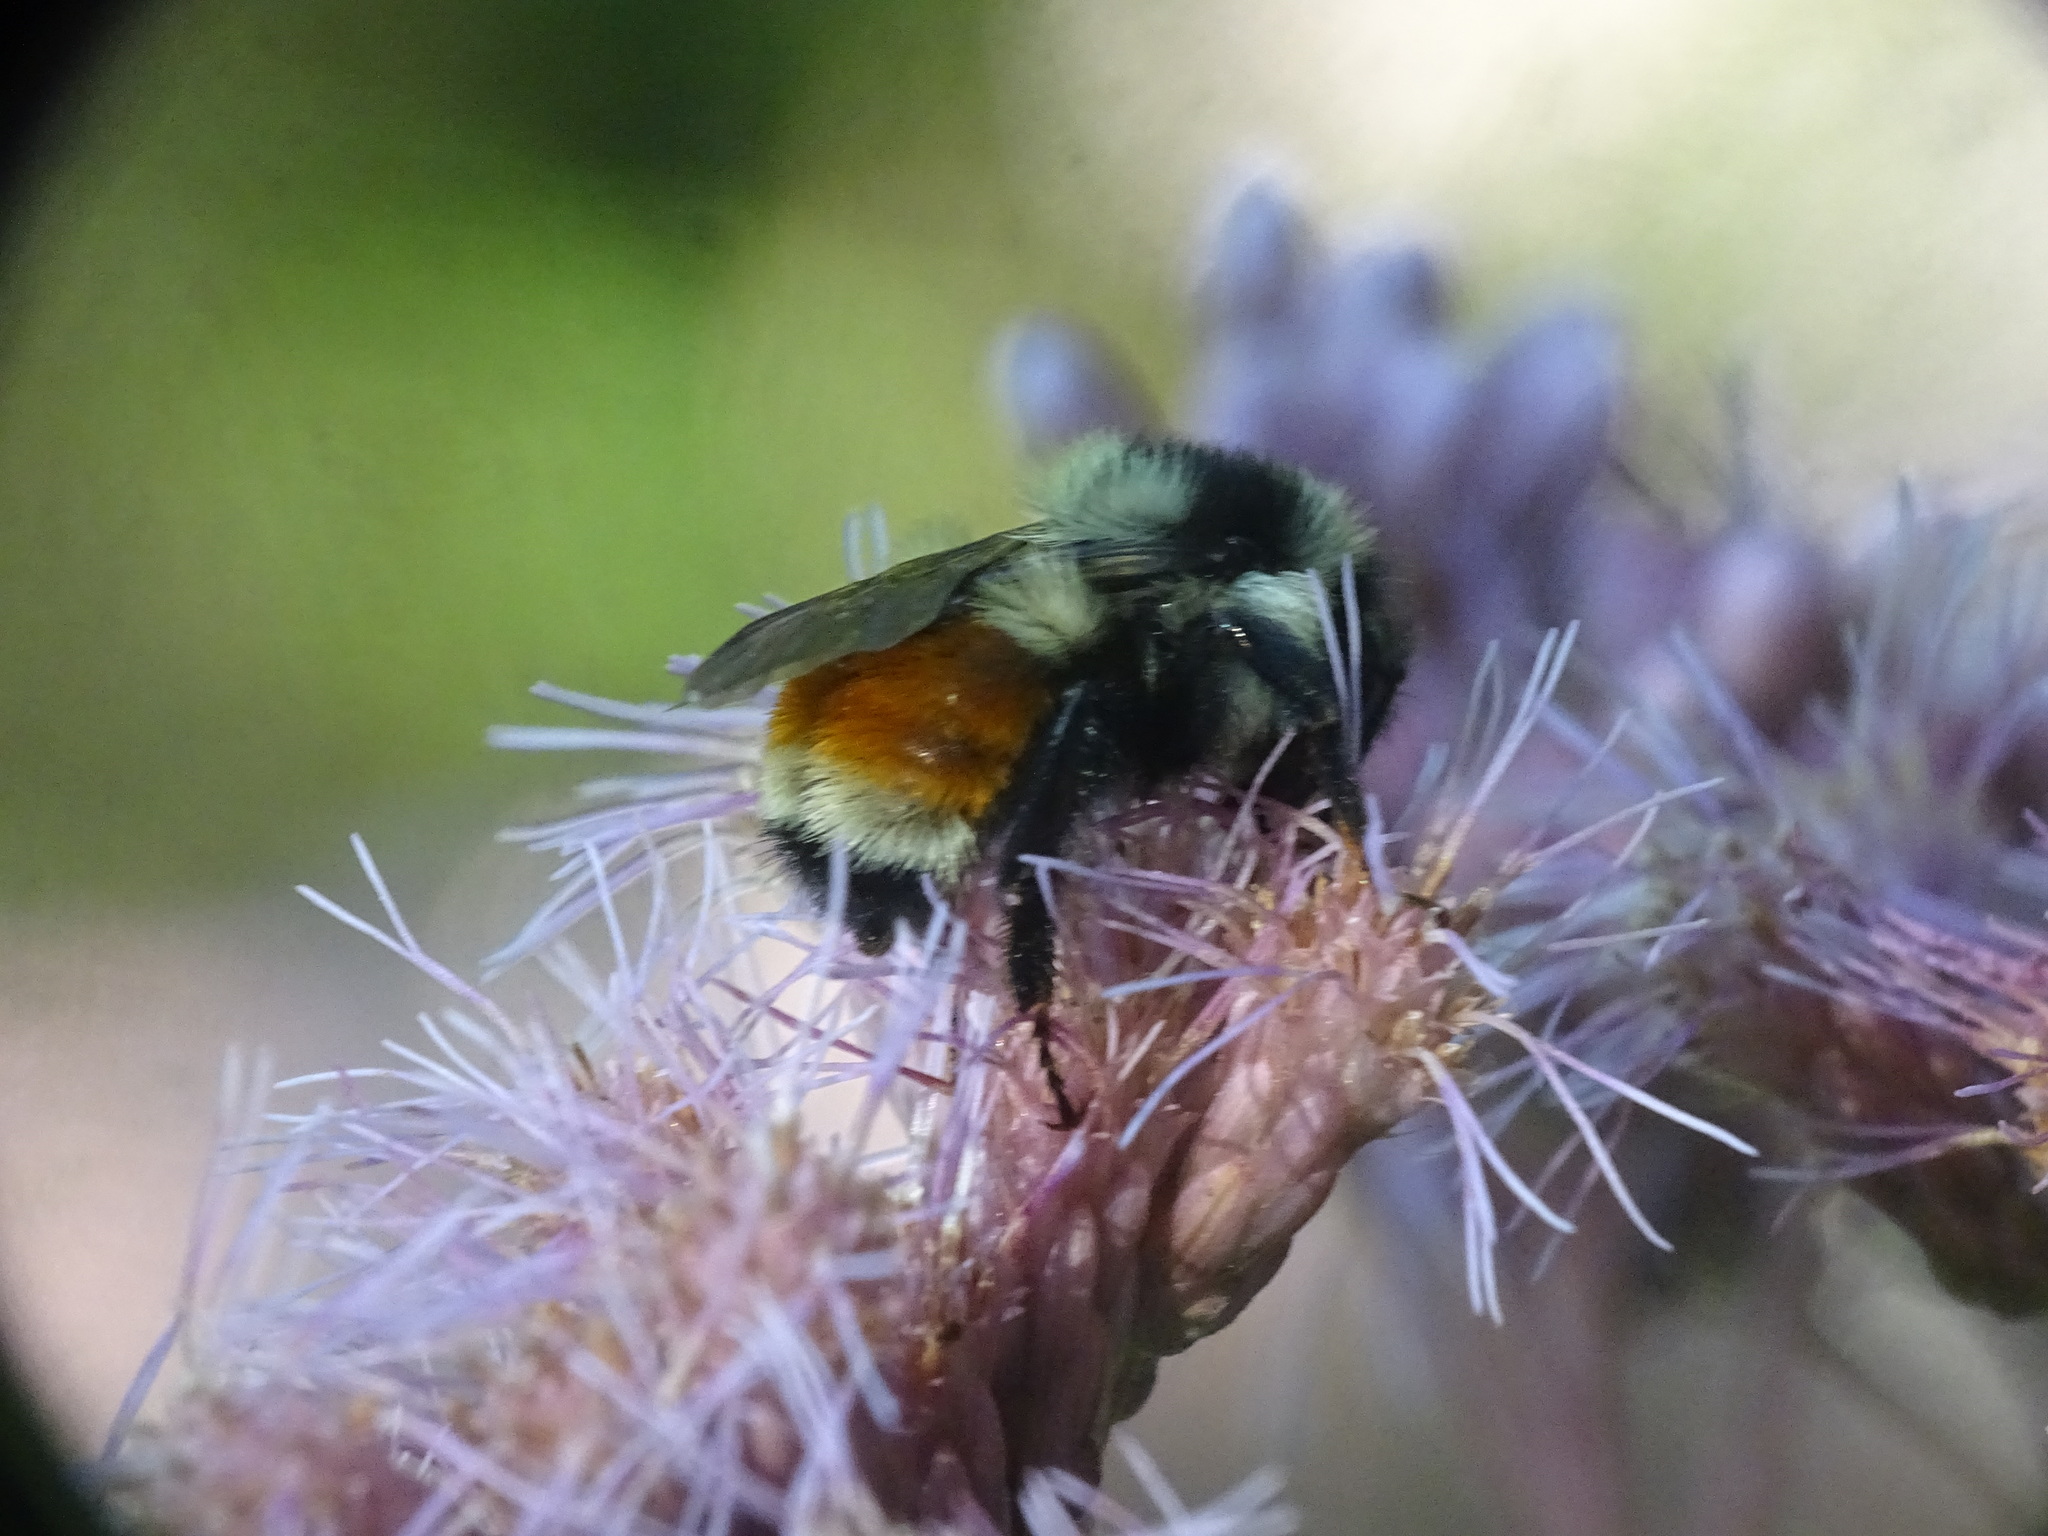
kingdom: Animalia
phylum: Arthropoda
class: Insecta
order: Hymenoptera
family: Apidae
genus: Bombus
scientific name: Bombus ternarius
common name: Tri-colored bumble bee
